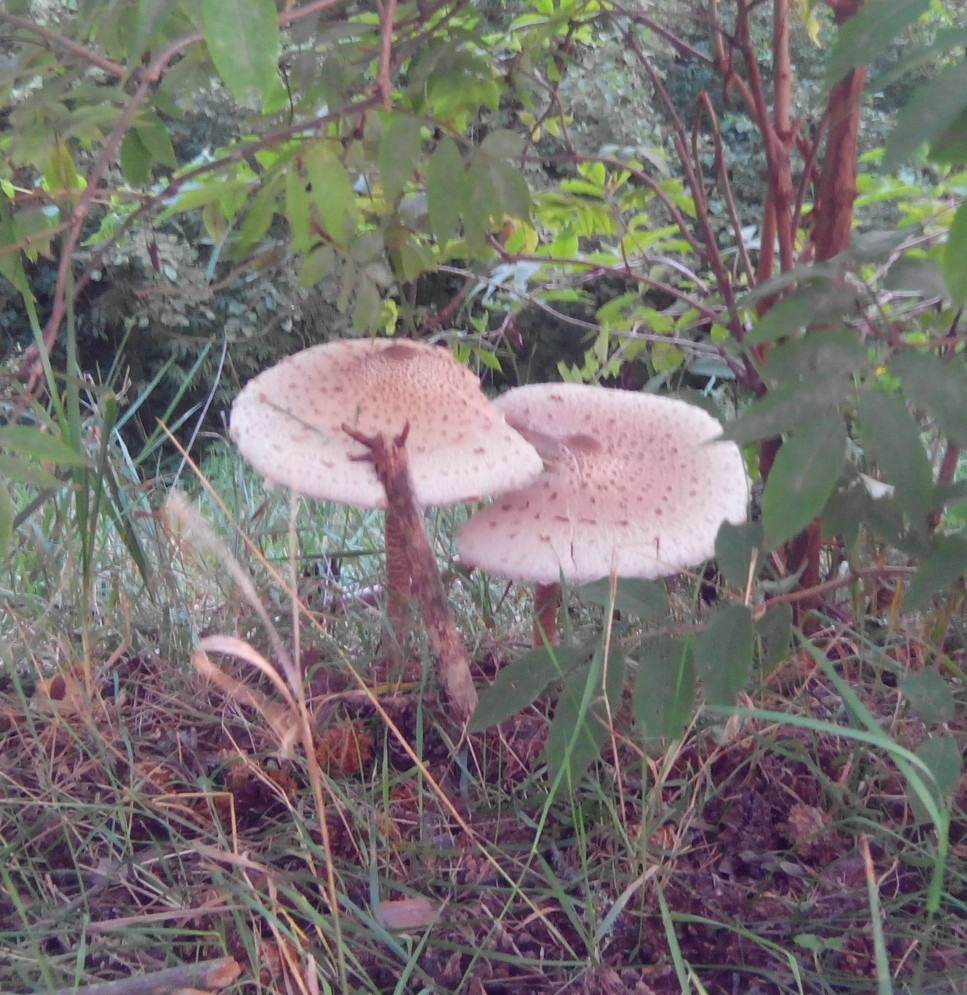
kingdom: Fungi
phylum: Basidiomycota
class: Agaricomycetes
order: Agaricales
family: Agaricaceae
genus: Macrolepiota
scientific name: Macrolepiota procera
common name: Parasol
